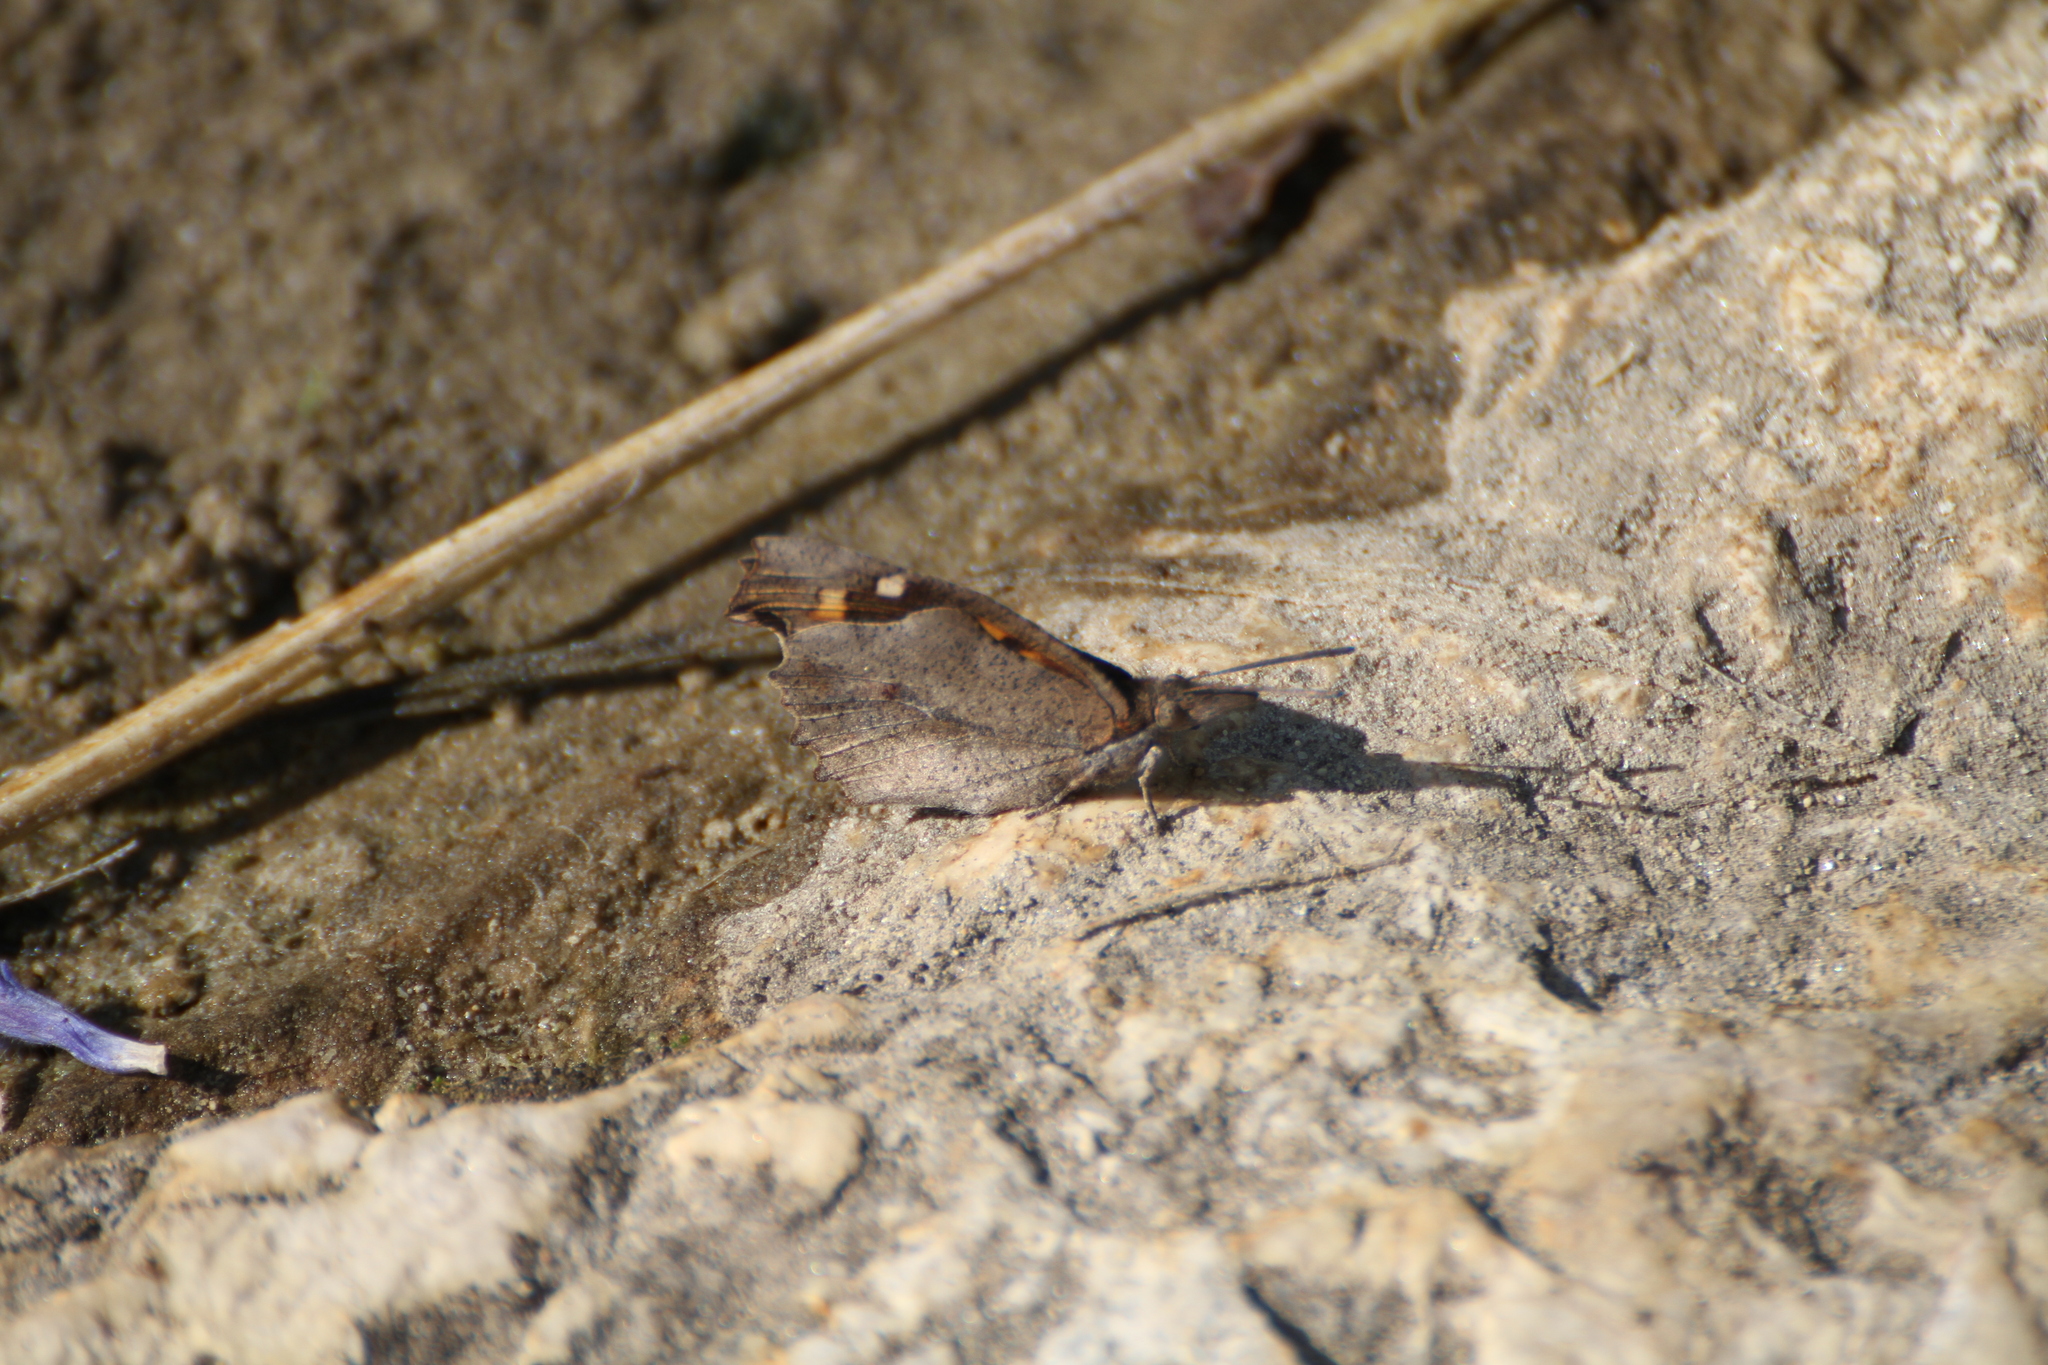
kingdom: Animalia
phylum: Arthropoda
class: Insecta
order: Lepidoptera
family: Nymphalidae
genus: Libythea
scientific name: Libythea celtis
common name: Nettle-tree butterfly
